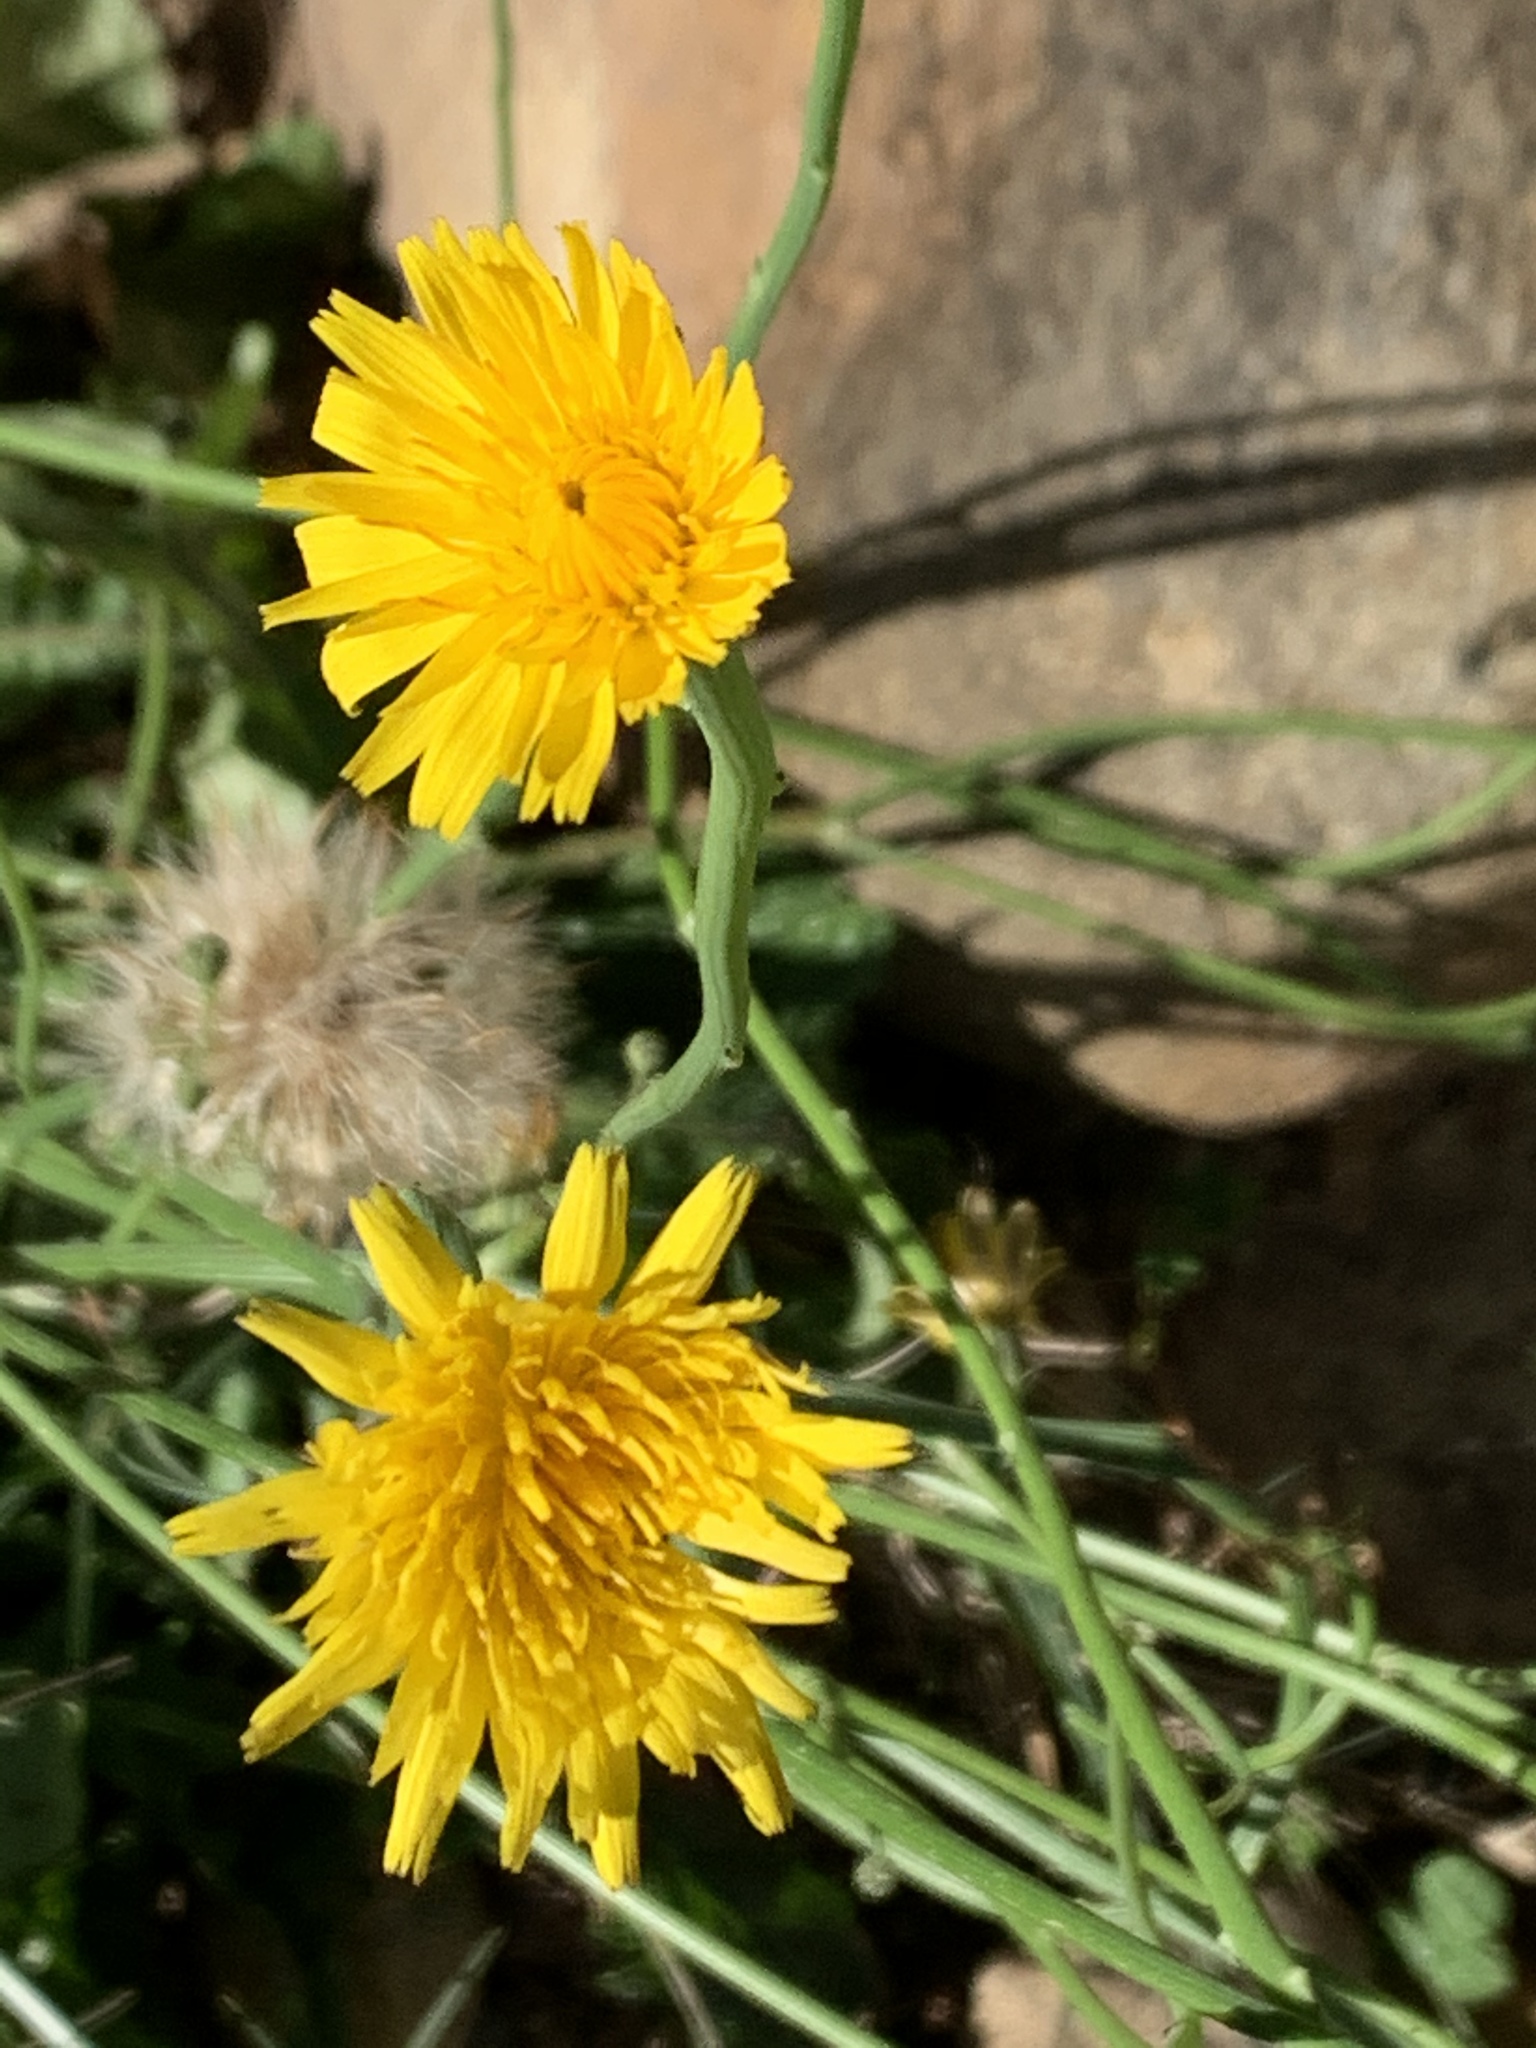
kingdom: Plantae
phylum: Tracheophyta
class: Magnoliopsida
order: Asterales
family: Asteraceae
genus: Hypochaeris
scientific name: Hypochaeris radicata
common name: Flatweed
